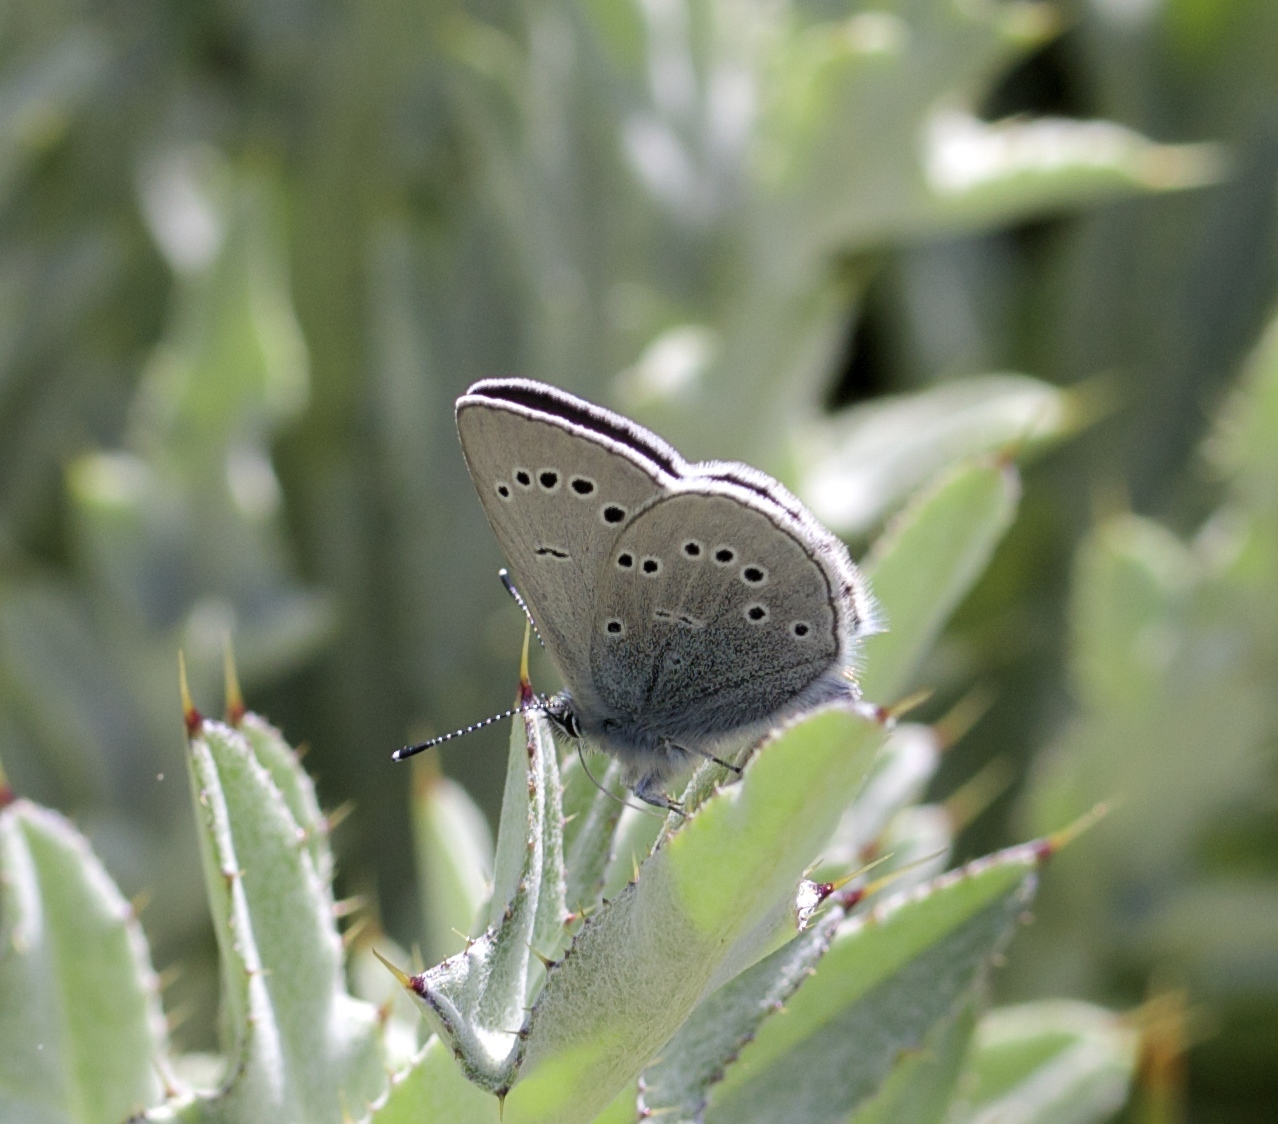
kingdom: Animalia
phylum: Arthropoda
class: Insecta
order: Lepidoptera
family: Lycaenidae
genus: Glaucopsyche
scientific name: Glaucopsyche lygdamus
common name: Silvery blue
